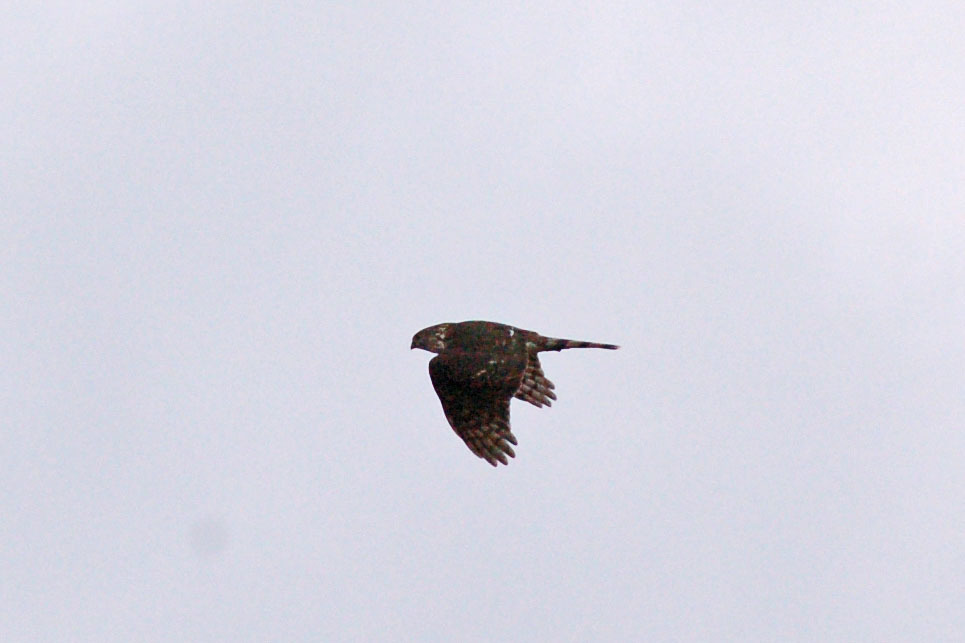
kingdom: Animalia
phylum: Chordata
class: Aves
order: Accipitriformes
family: Accipitridae
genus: Accipiter
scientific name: Accipiter striatus
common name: Sharp-shinned hawk
